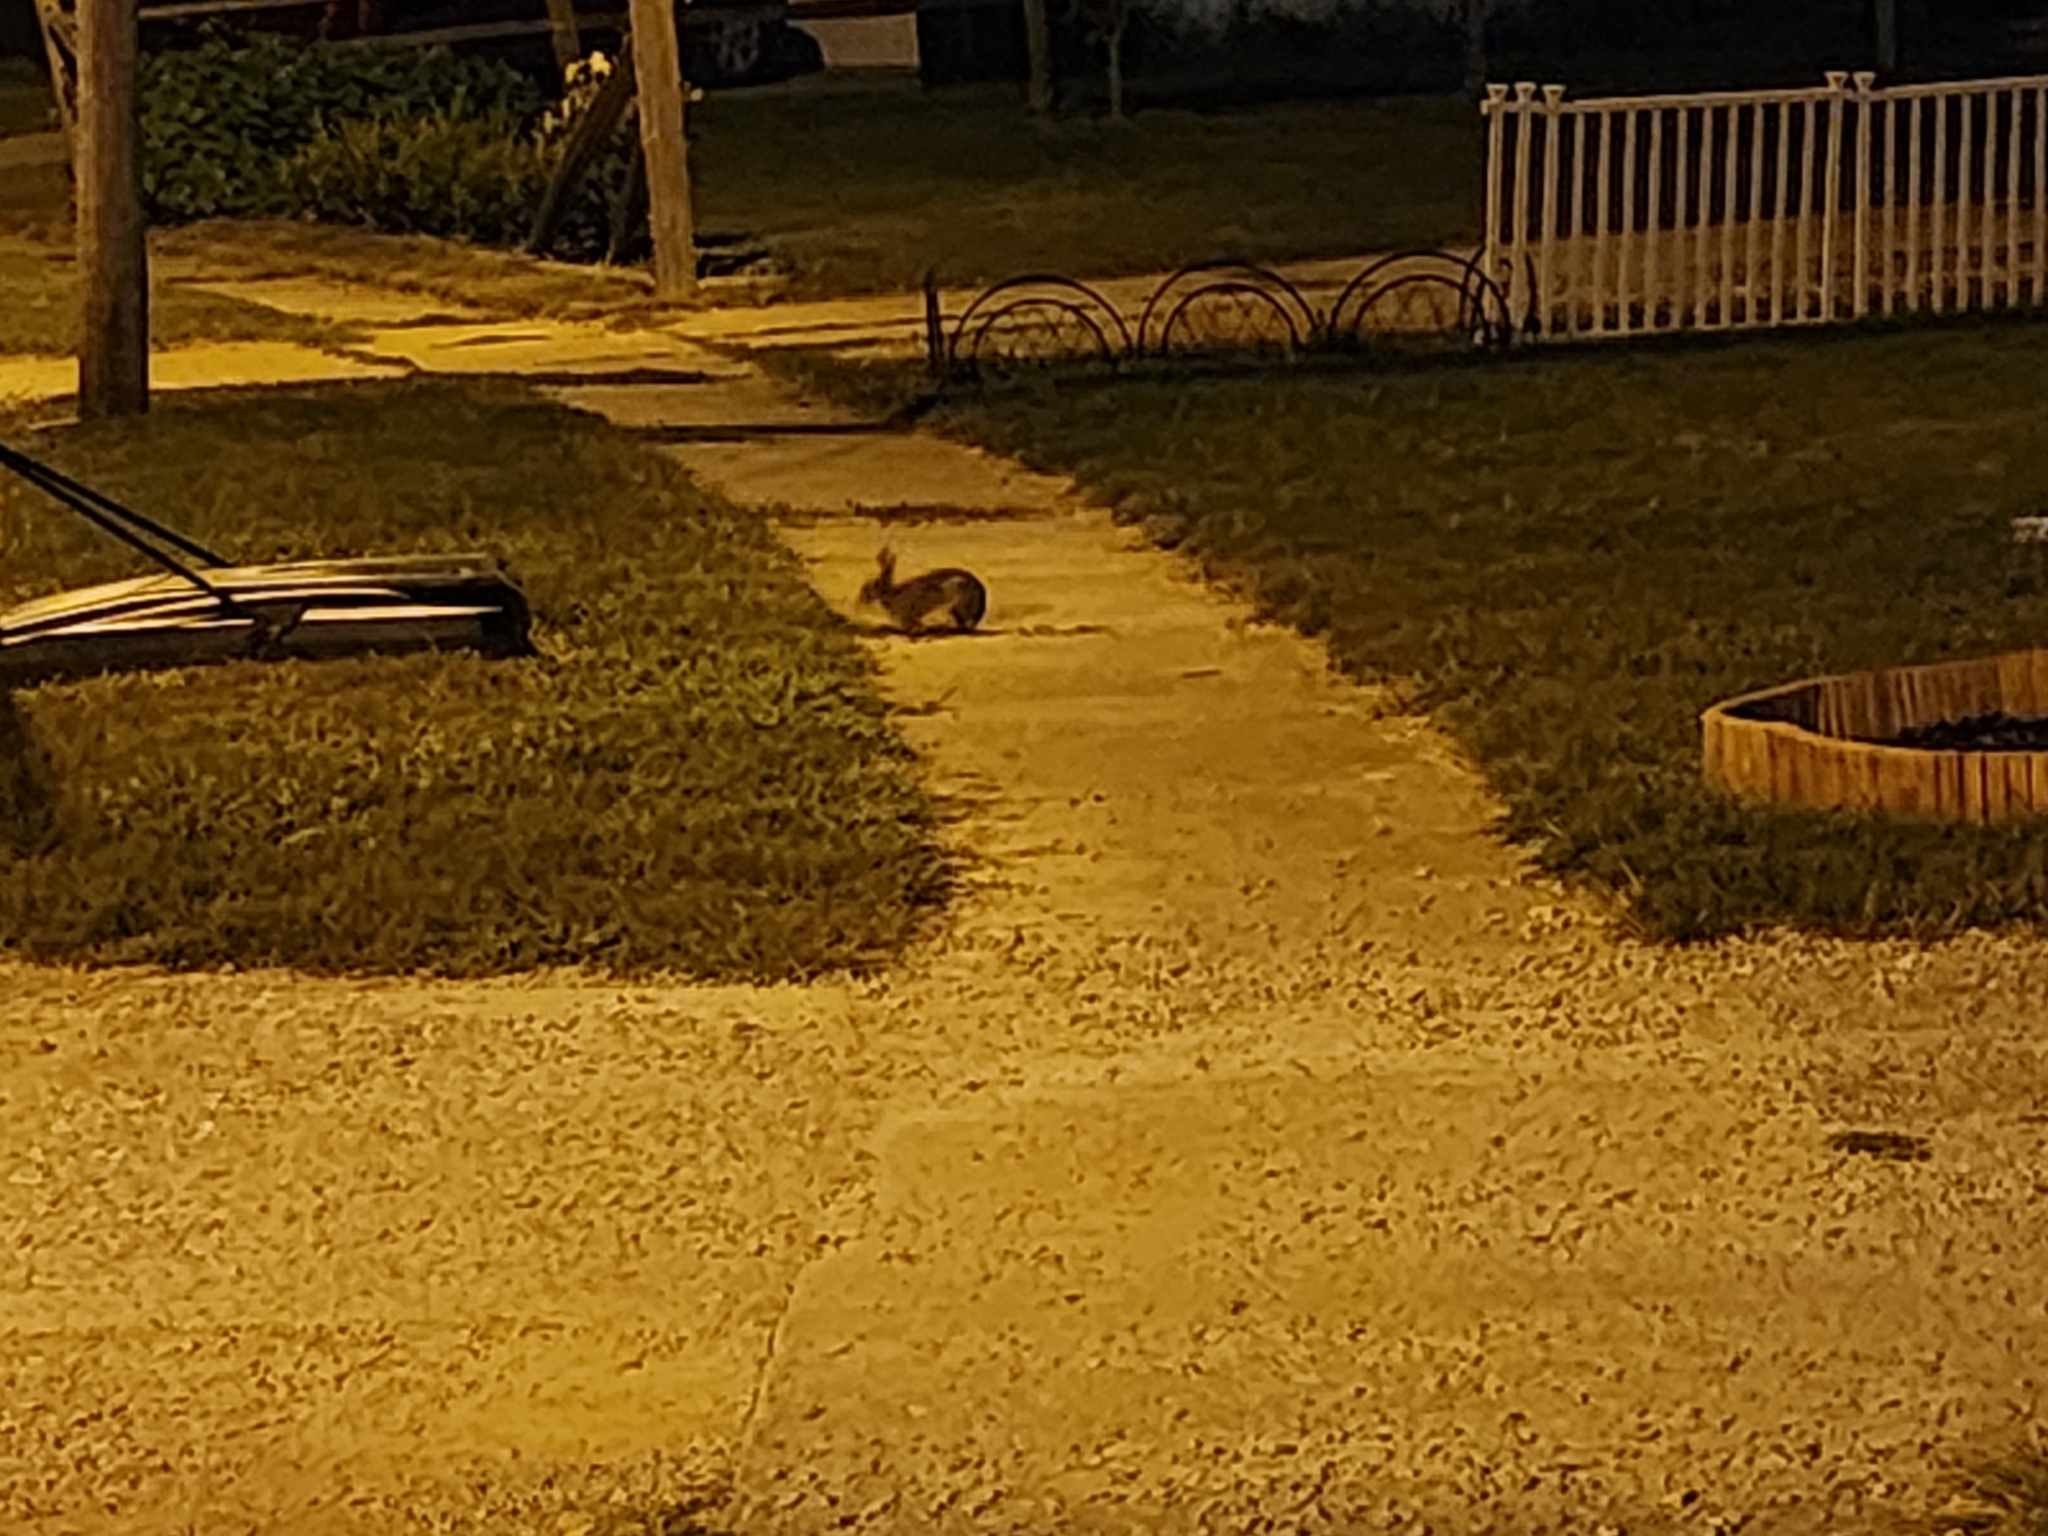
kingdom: Animalia
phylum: Chordata
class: Mammalia
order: Lagomorpha
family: Leporidae
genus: Sylvilagus
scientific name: Sylvilagus floridanus
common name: Eastern cottontail
